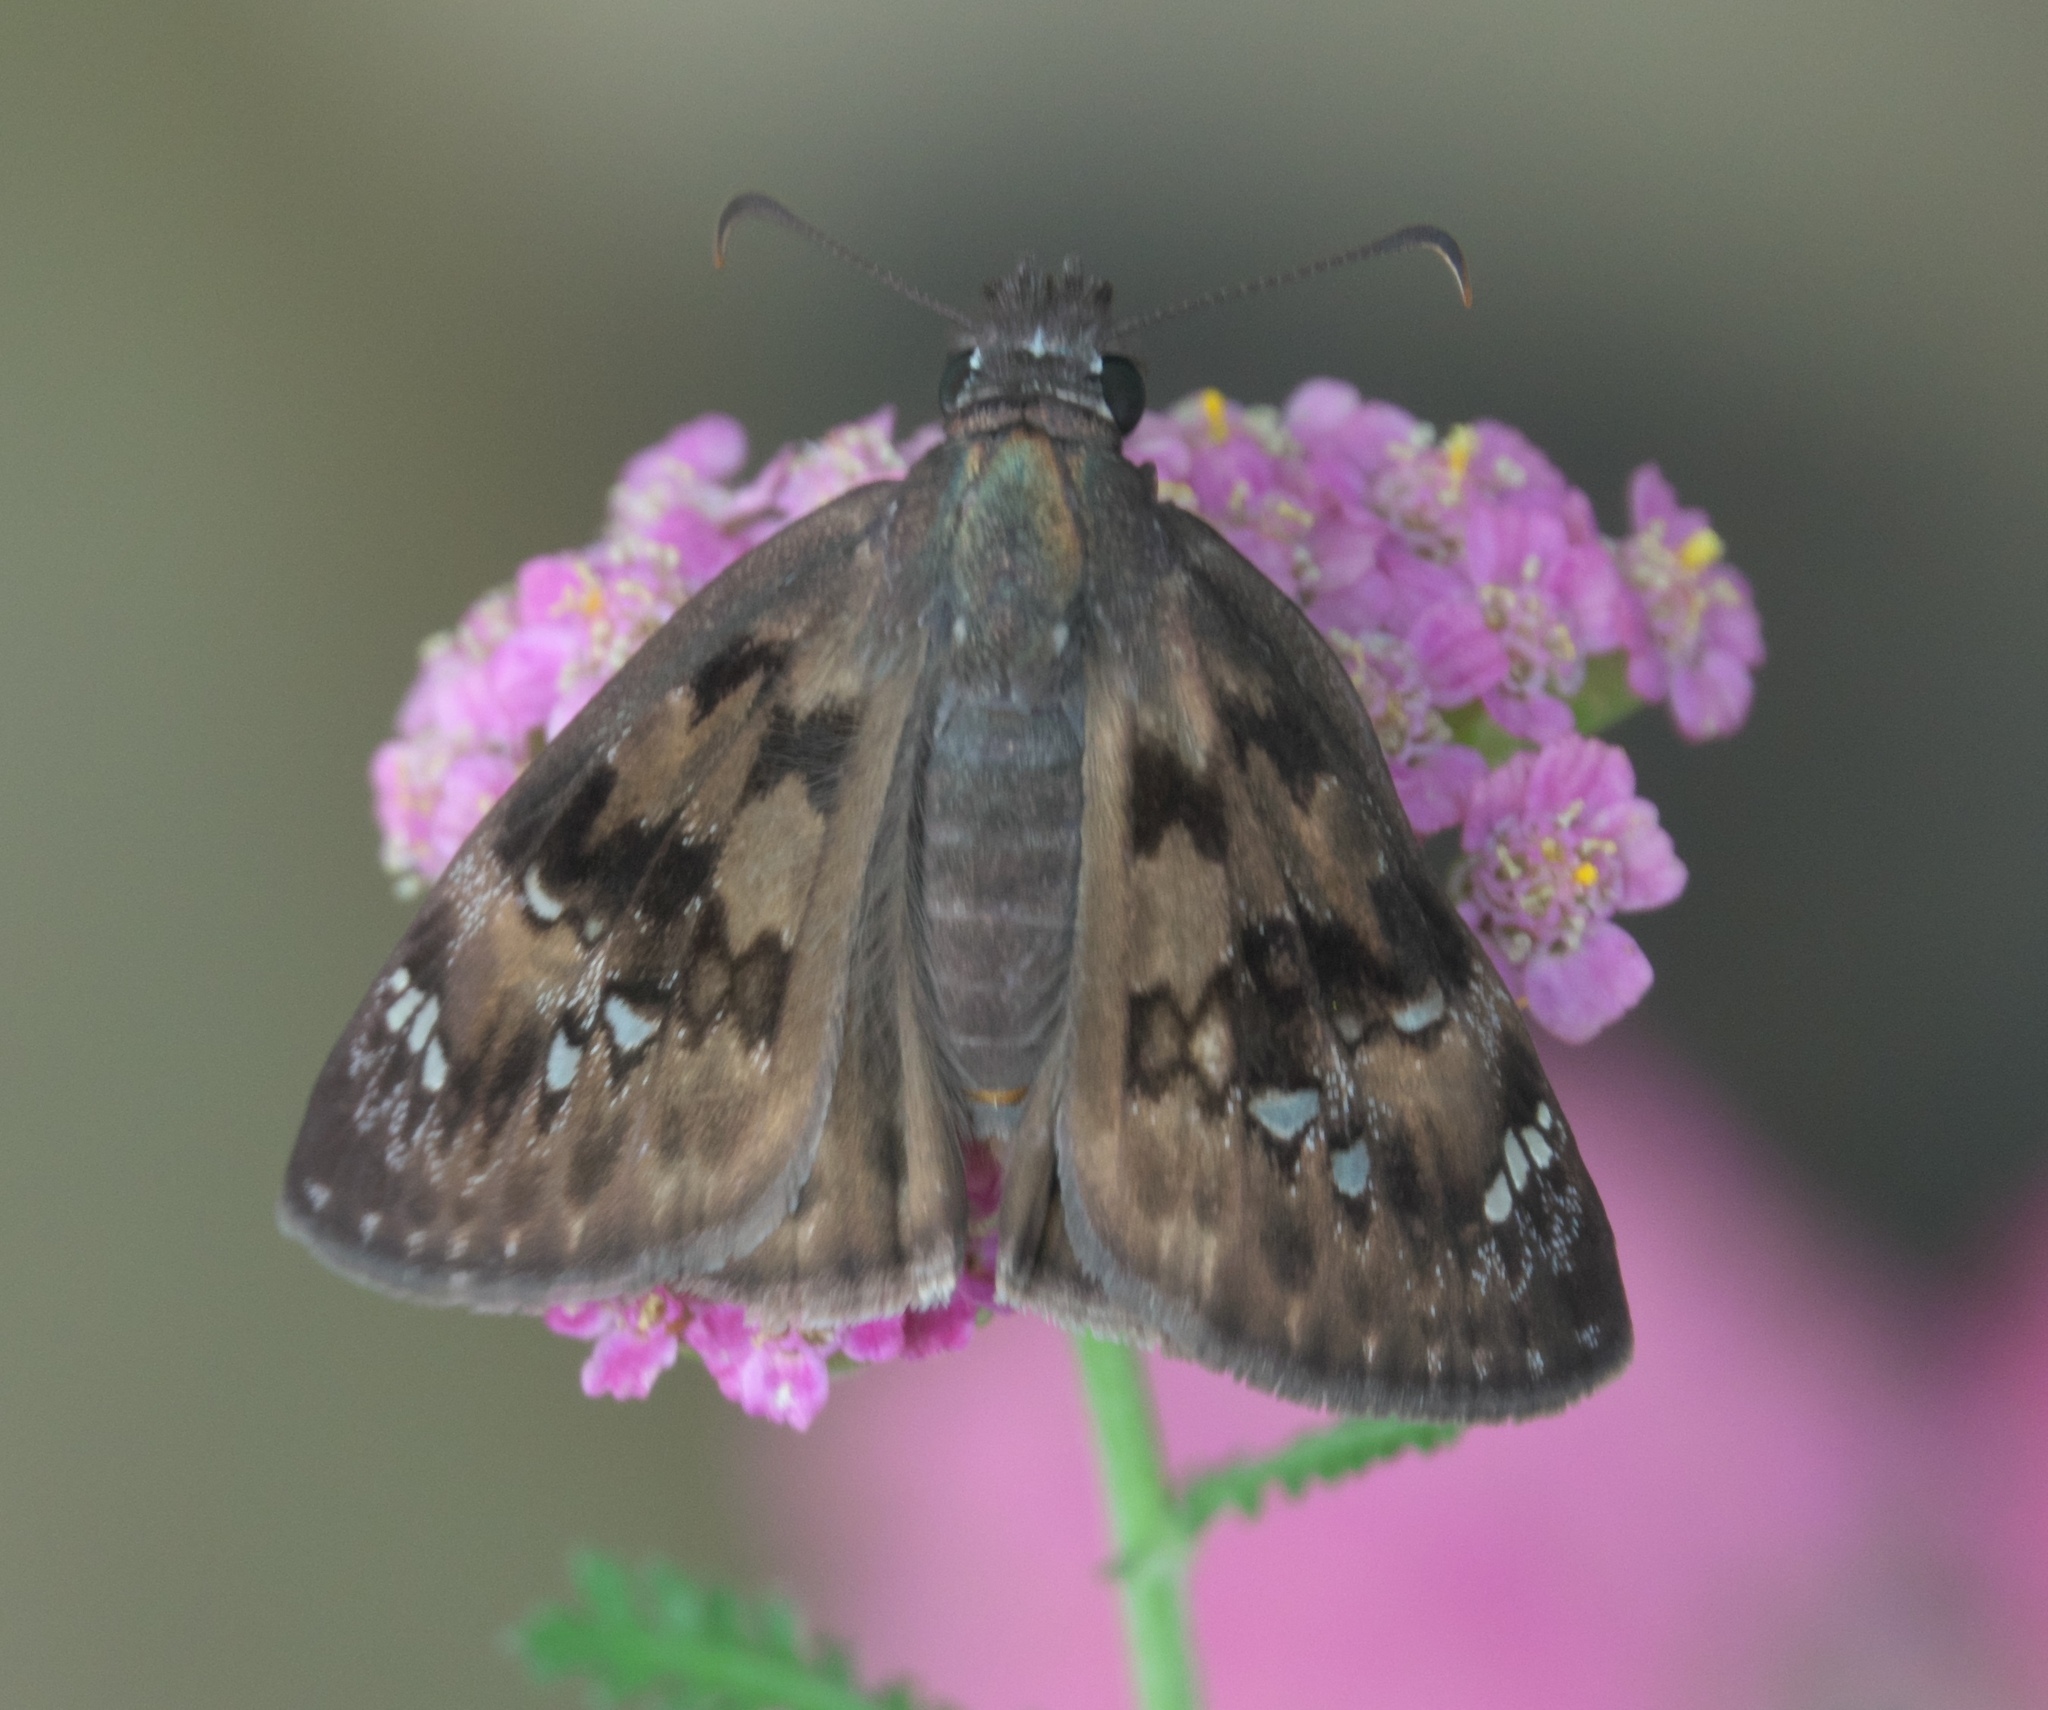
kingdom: Animalia
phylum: Arthropoda
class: Insecta
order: Lepidoptera
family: Hesperiidae
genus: Erynnis
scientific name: Erynnis juvenalis
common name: Juvenal's duskywing
